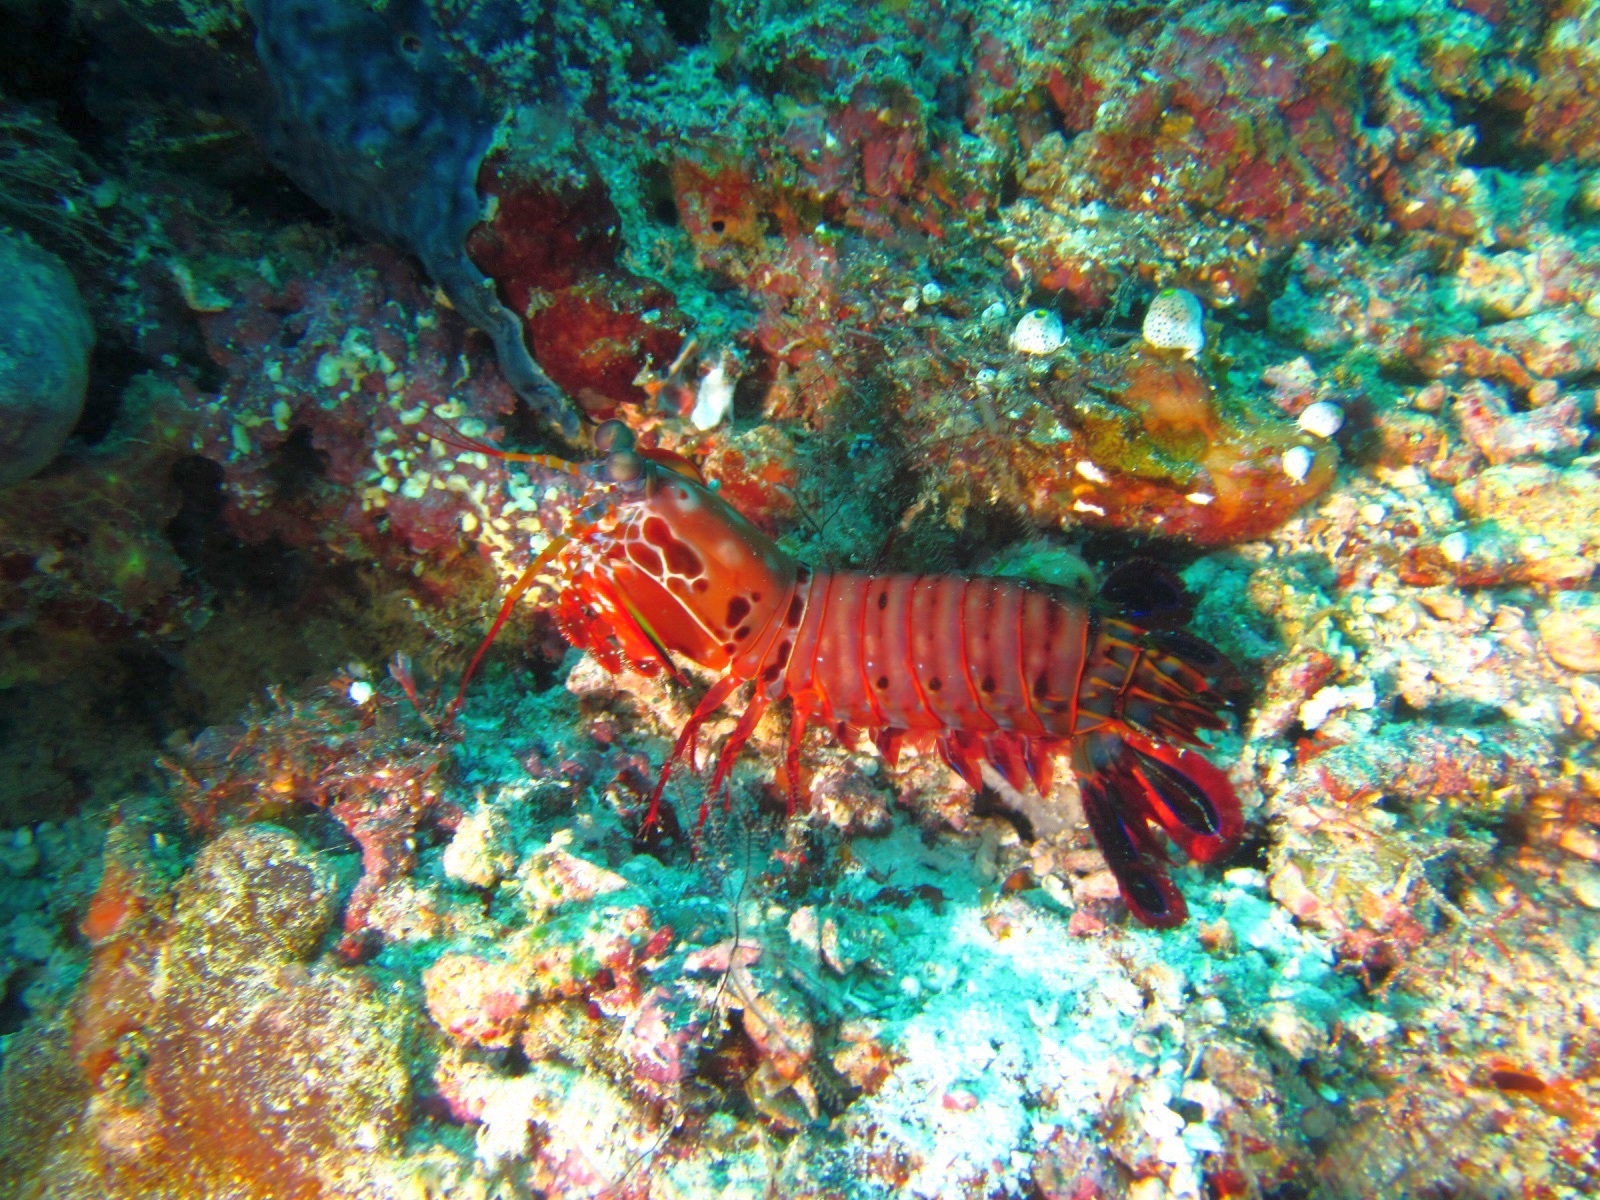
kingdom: Animalia
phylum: Arthropoda
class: Malacostraca
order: Stomatopoda
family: Odontodactylidae
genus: Odontodactylus
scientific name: Odontodactylus scyllarus
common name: Peacock mantis shrimp
